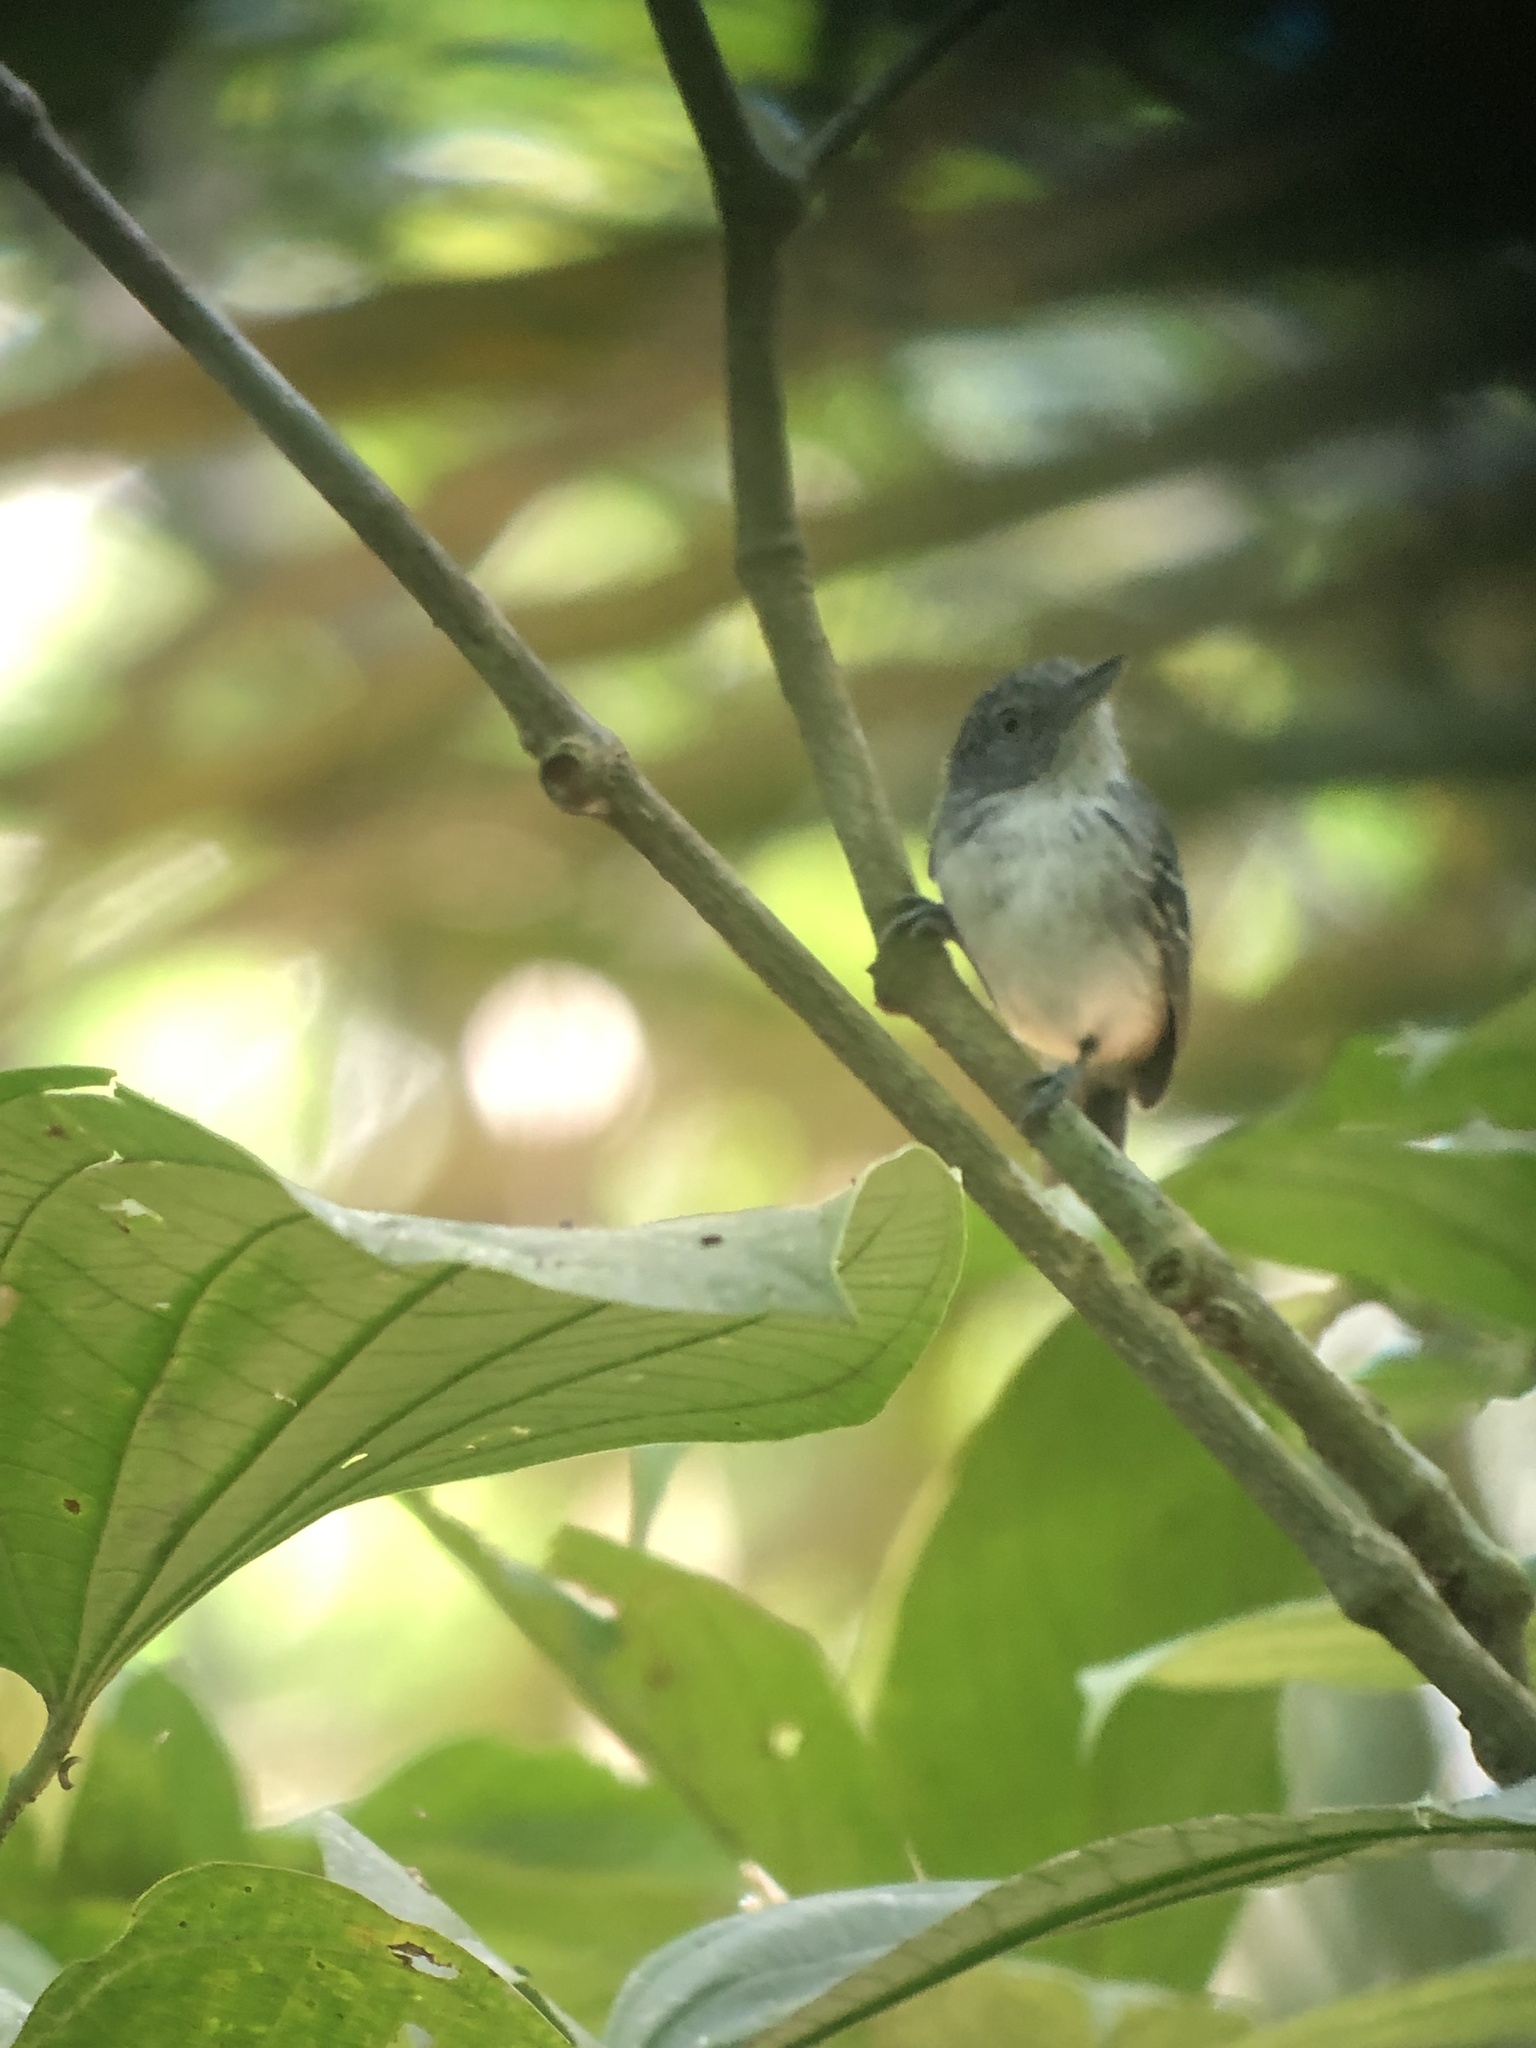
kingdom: Animalia
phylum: Chordata
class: Aves
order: Passeriformes
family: Thamnophilidae
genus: Dysithamnus
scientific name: Dysithamnus puncticeps
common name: Spot-crowned antvireo
